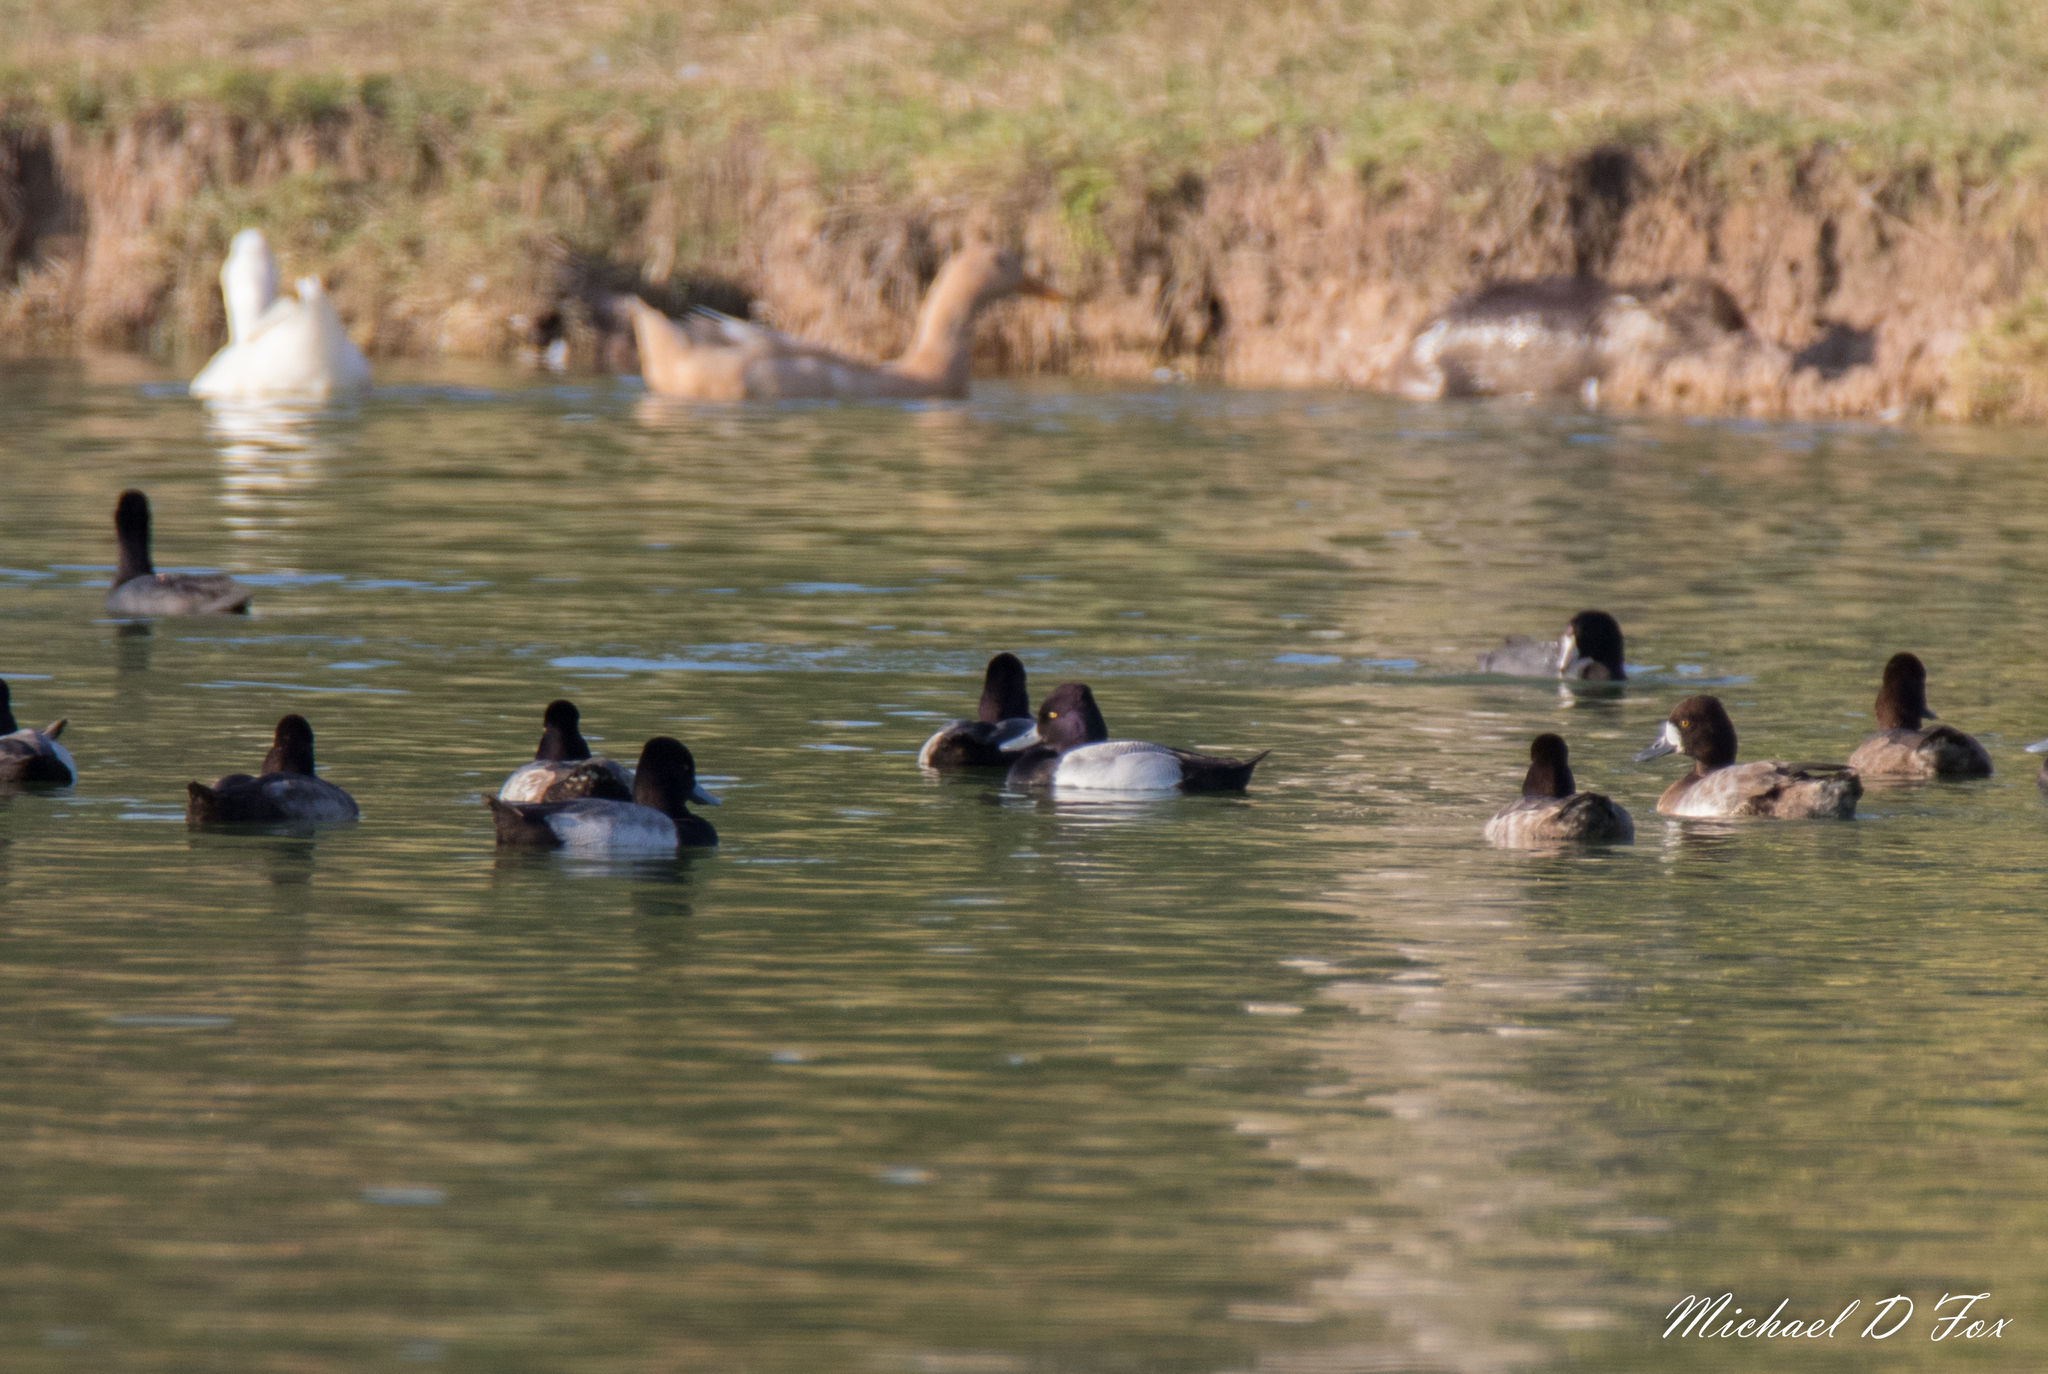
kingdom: Animalia
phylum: Chordata
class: Aves
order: Anseriformes
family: Anatidae
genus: Aythya
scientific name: Aythya affinis
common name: Lesser scaup
